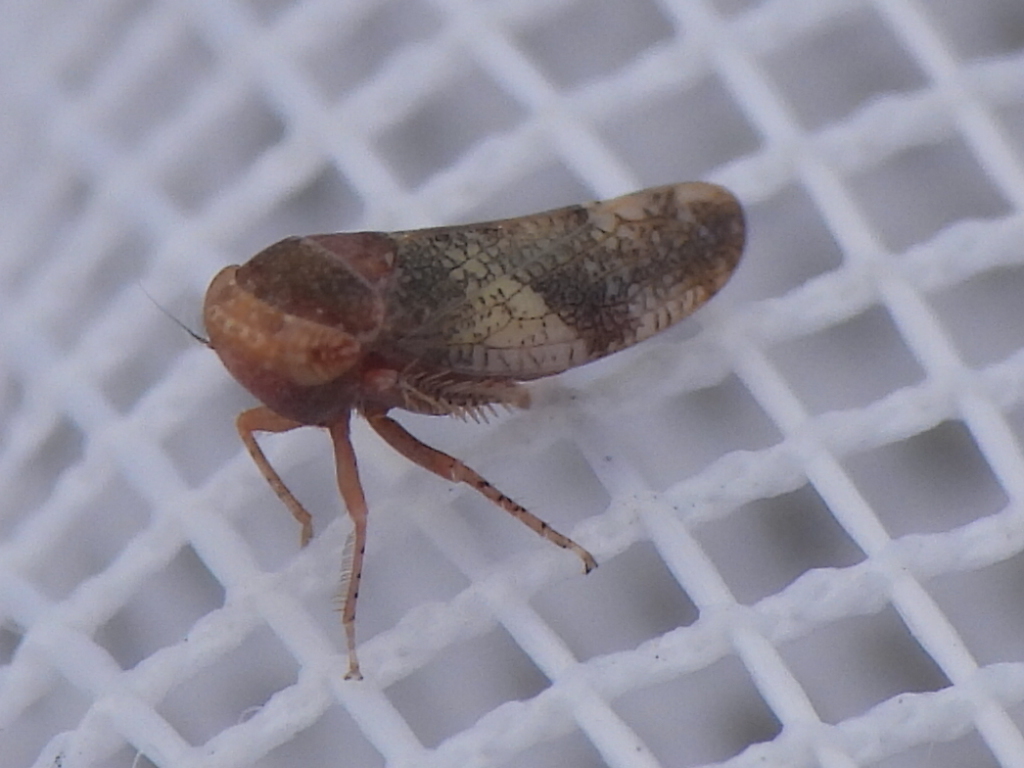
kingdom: Animalia
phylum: Arthropoda
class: Insecta
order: Hemiptera
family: Cicadellidae
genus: Norvellina
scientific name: Norvellina helenae
